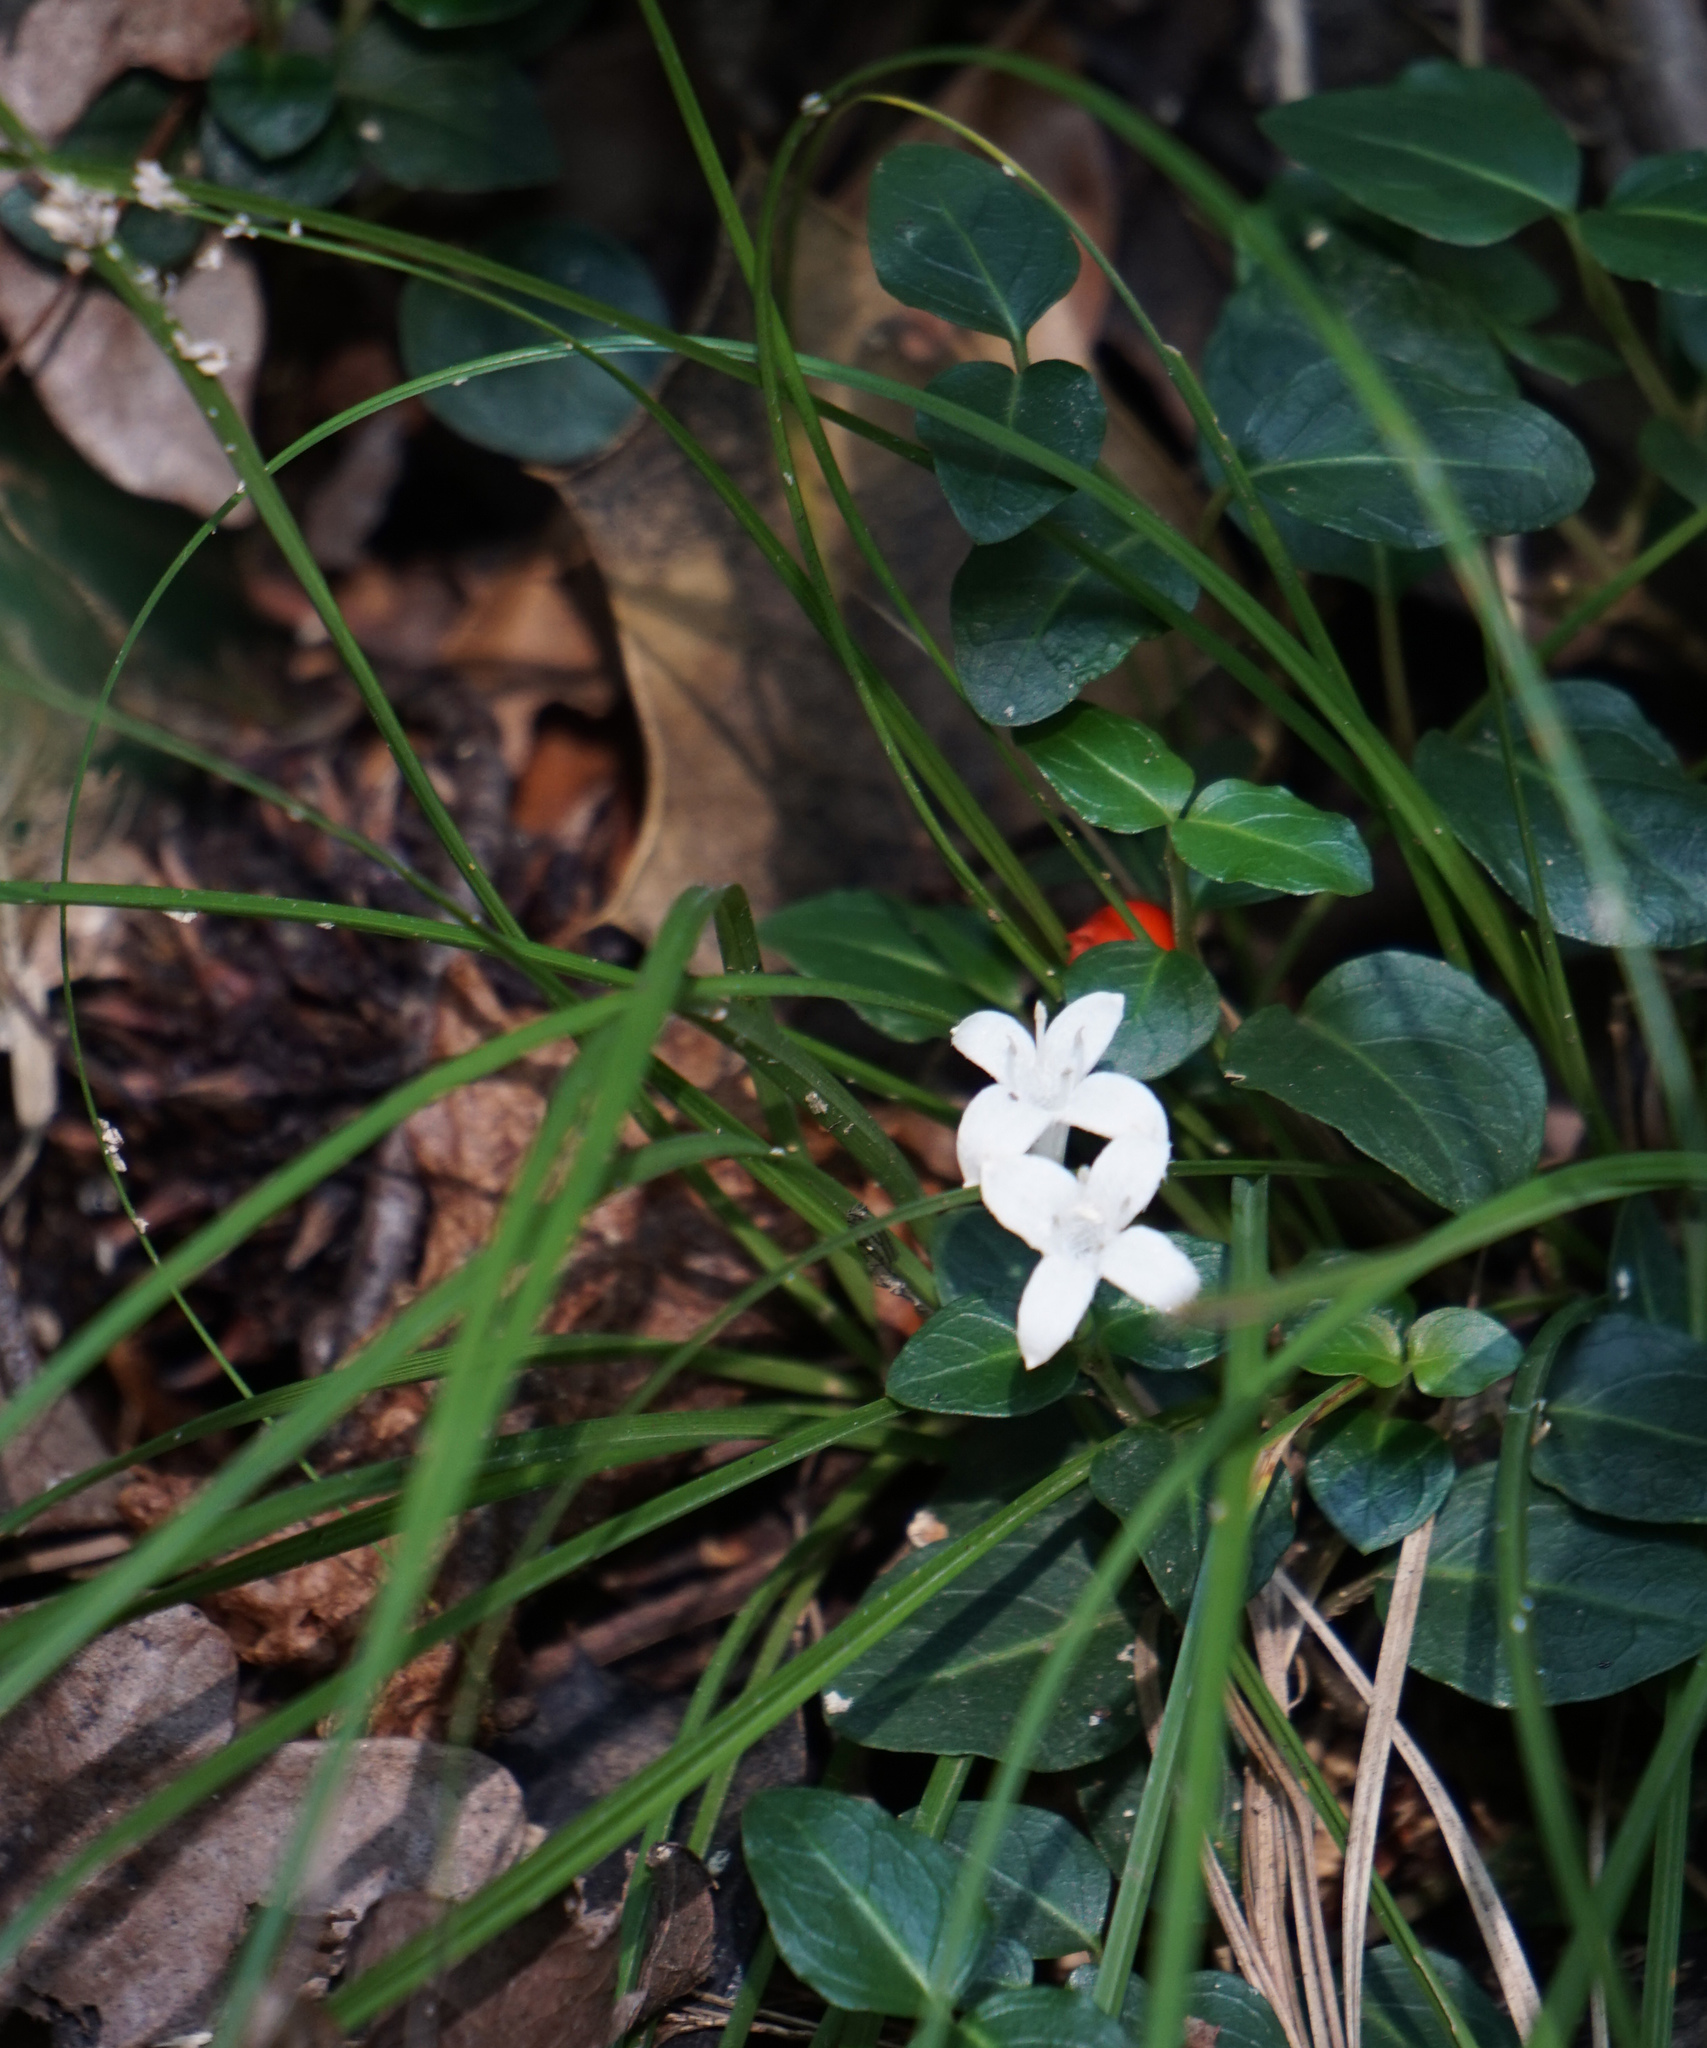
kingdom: Plantae
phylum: Tracheophyta
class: Magnoliopsida
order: Gentianales
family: Rubiaceae
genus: Mitchella
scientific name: Mitchella repens
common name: Partridge-berry
